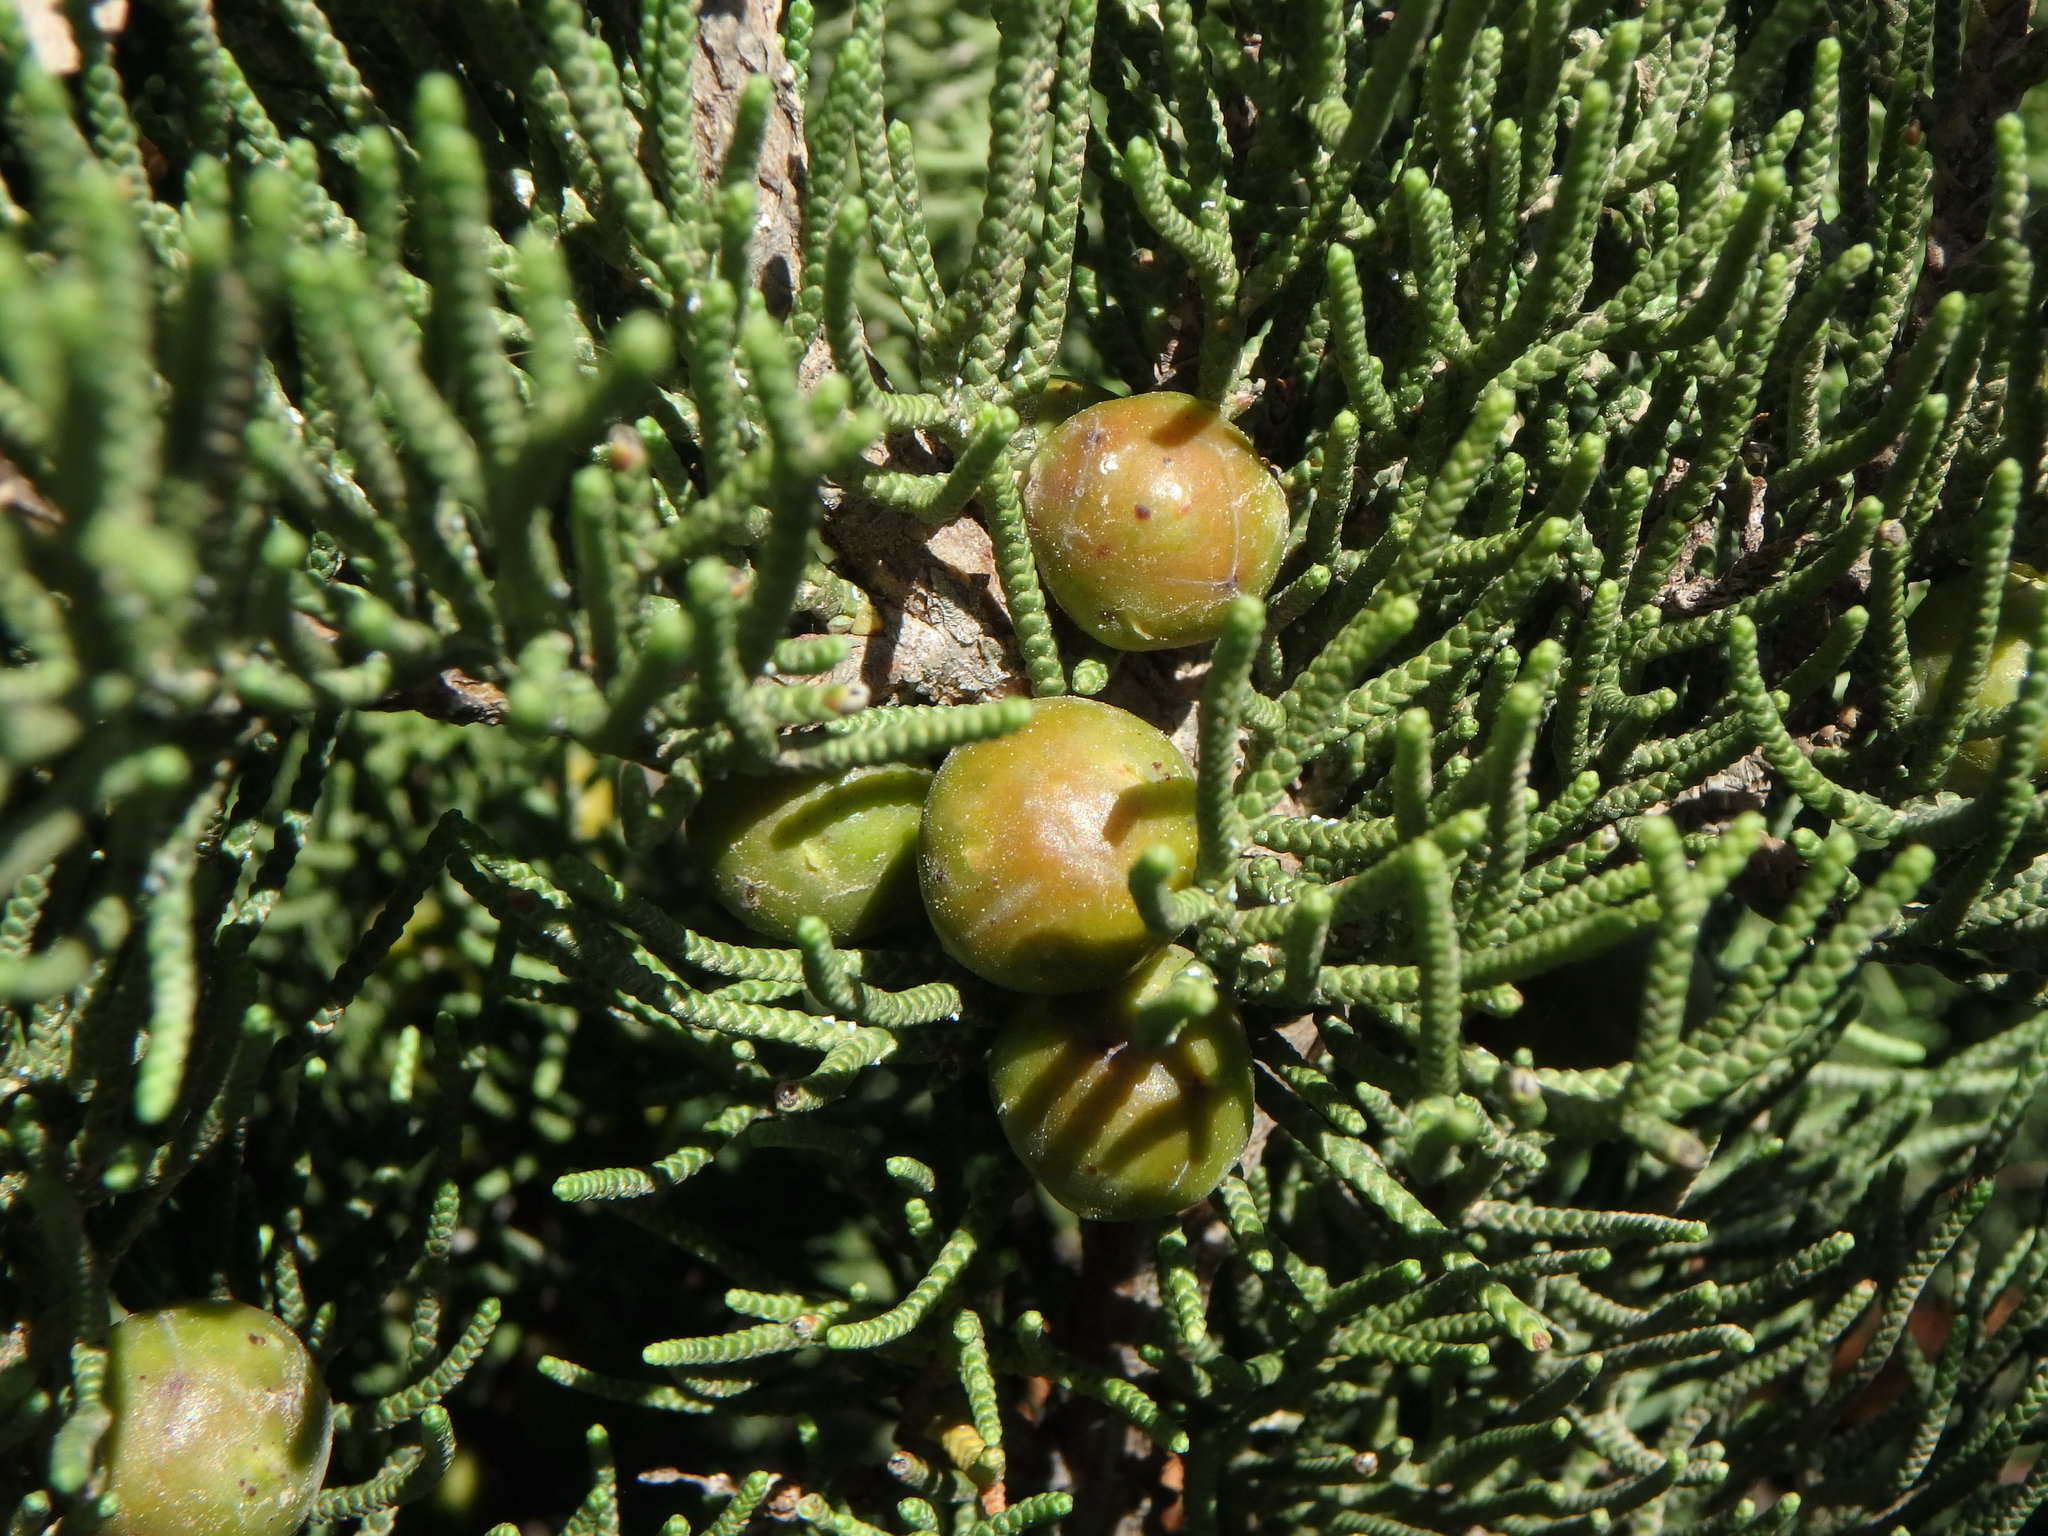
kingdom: Plantae
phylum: Tracheophyta
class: Pinopsida
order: Pinales
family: Cupressaceae
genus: Juniperus
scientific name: Juniperus phoenicea
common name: Phoenician juniper
